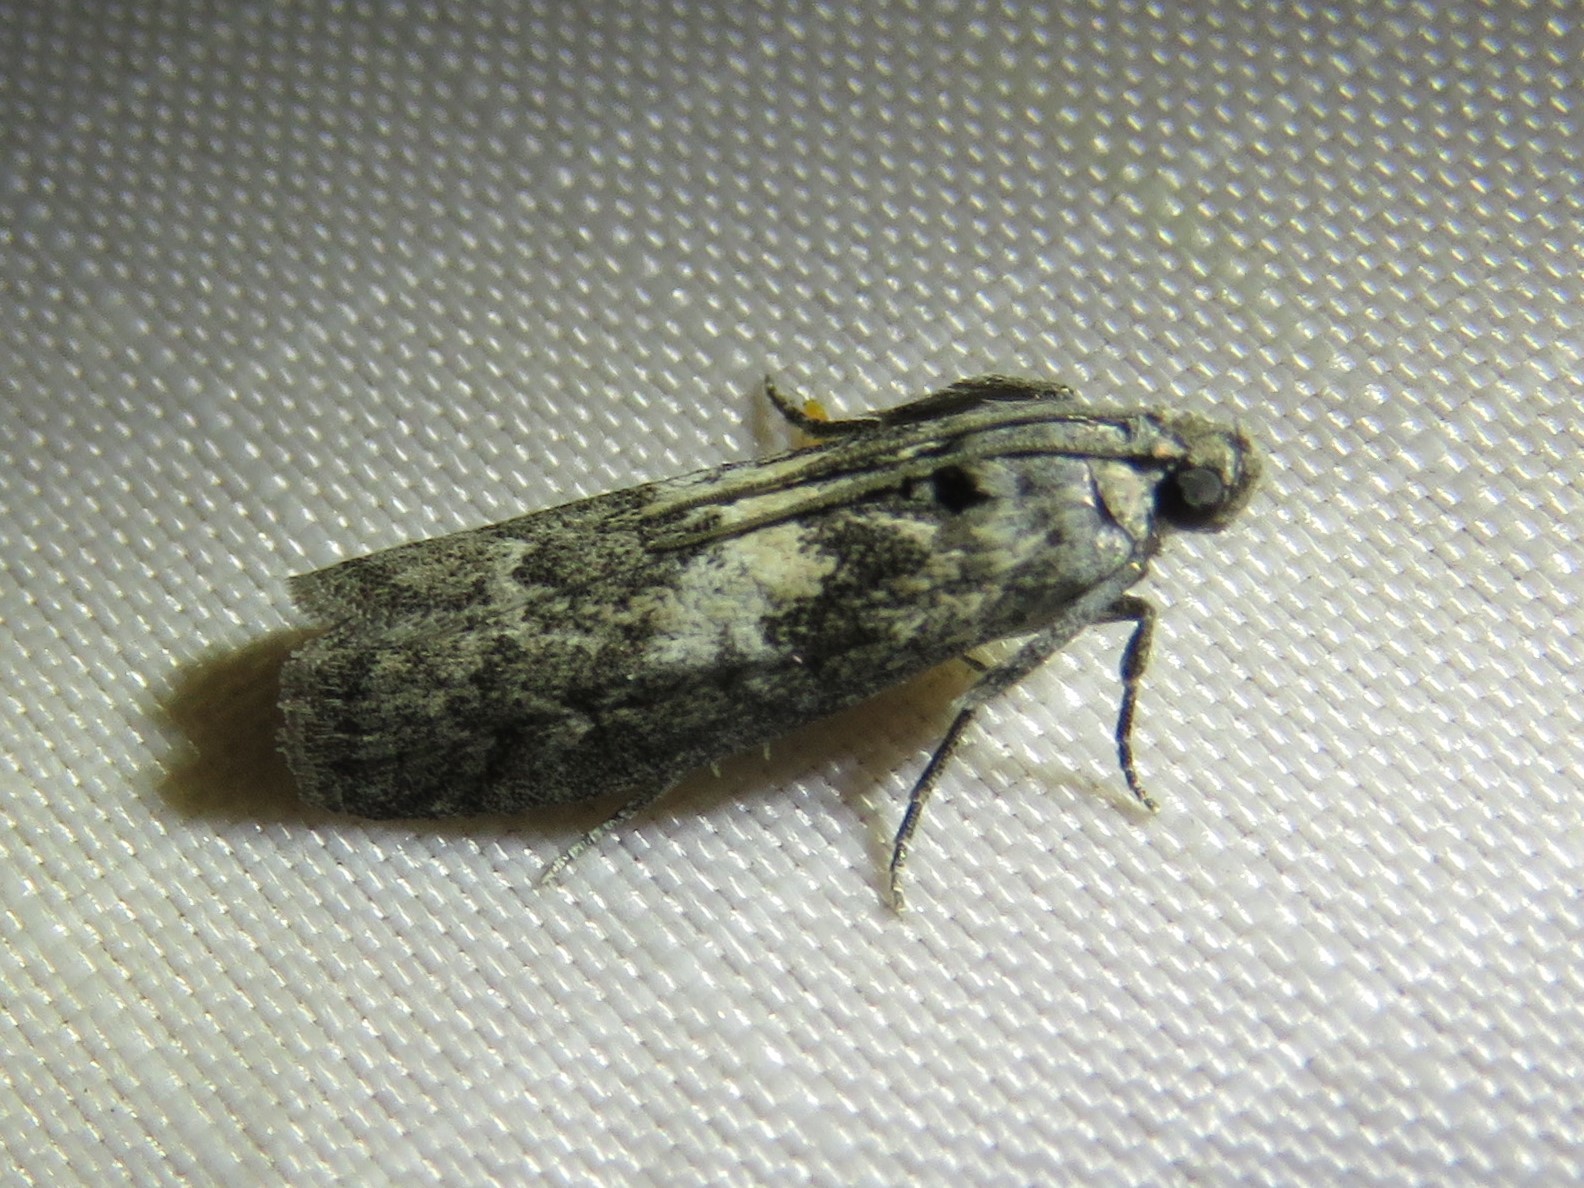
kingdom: Animalia
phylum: Arthropoda
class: Insecta
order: Lepidoptera
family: Pyralidae
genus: Tacoma
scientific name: Tacoma feriella
